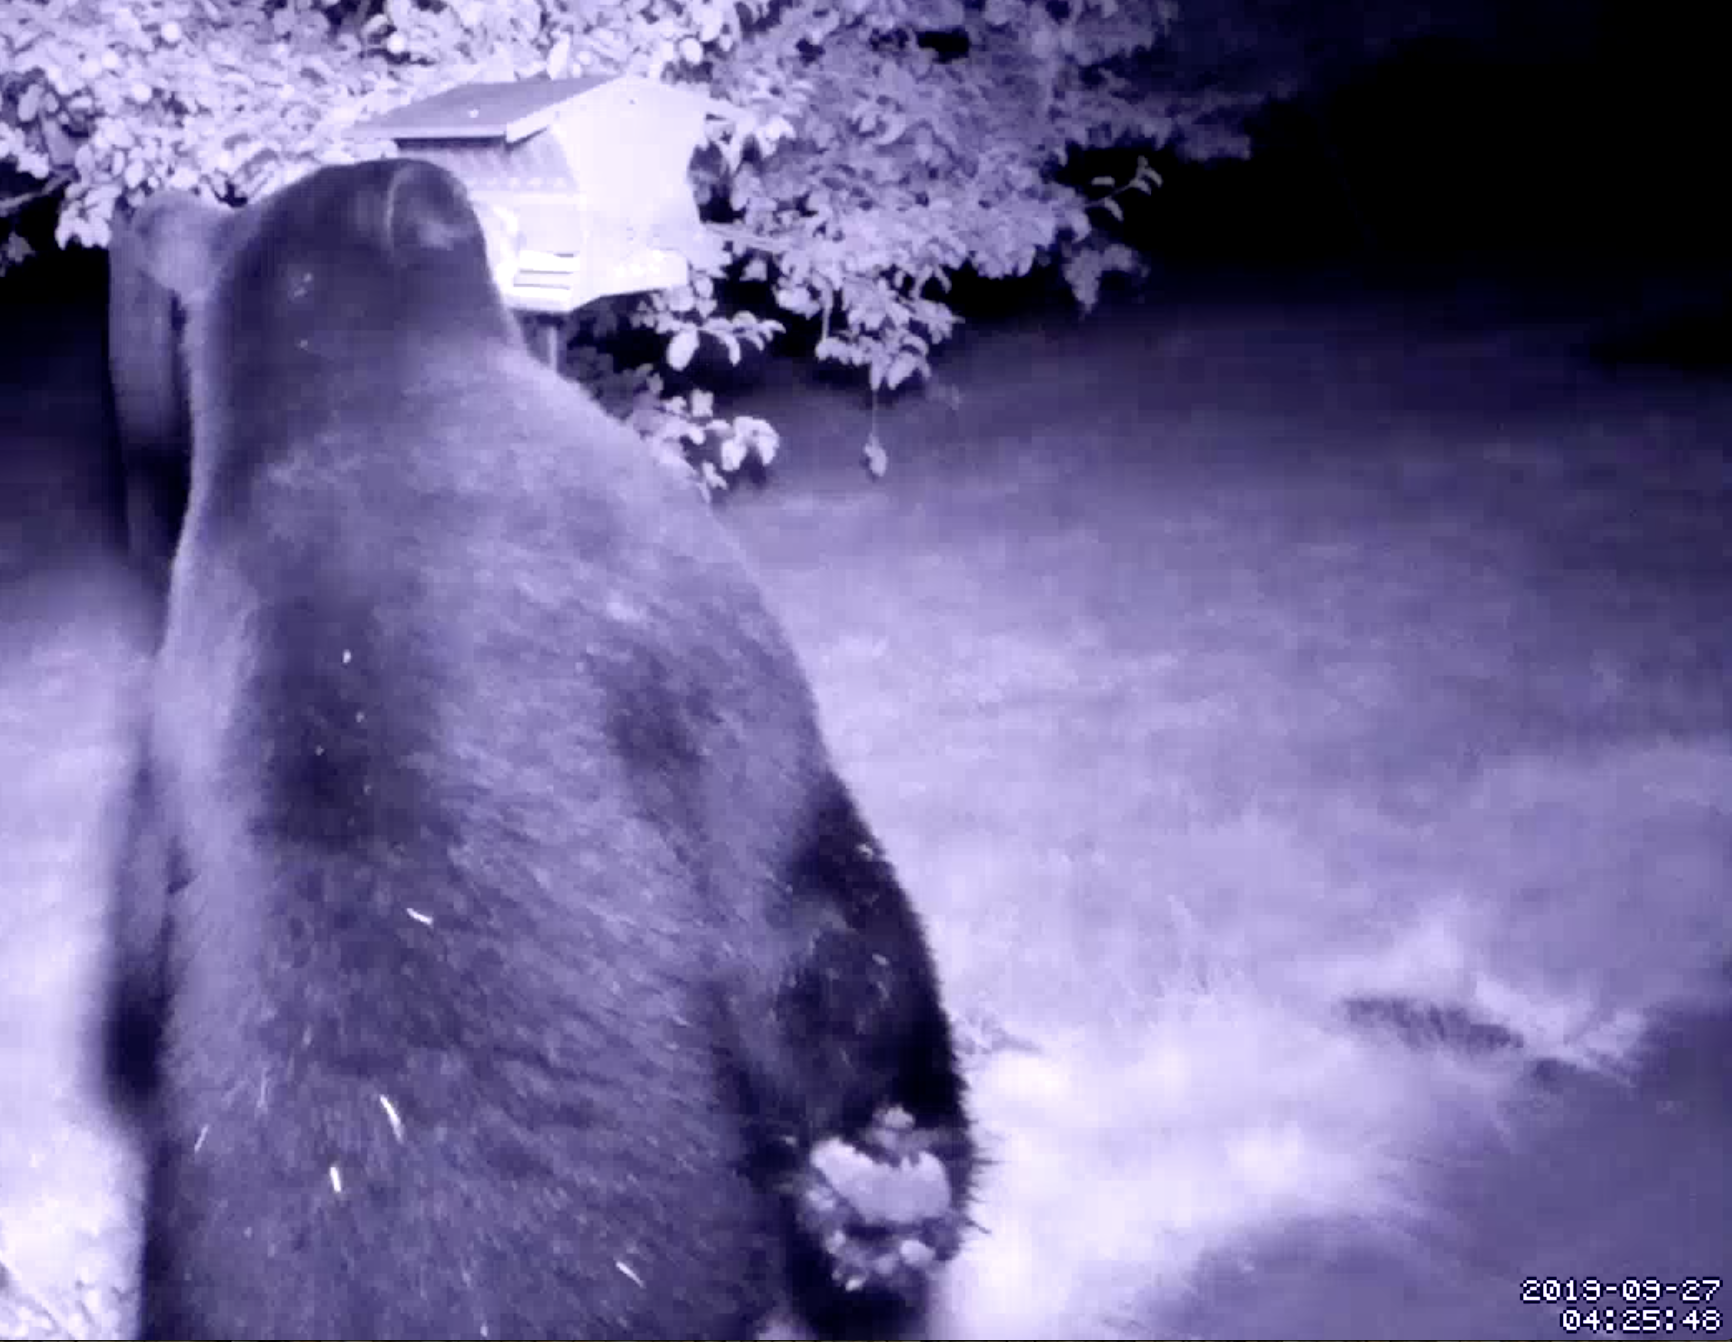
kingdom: Animalia
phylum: Chordata
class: Mammalia
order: Carnivora
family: Ursidae
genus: Ursus
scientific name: Ursus americanus
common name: American black bear
